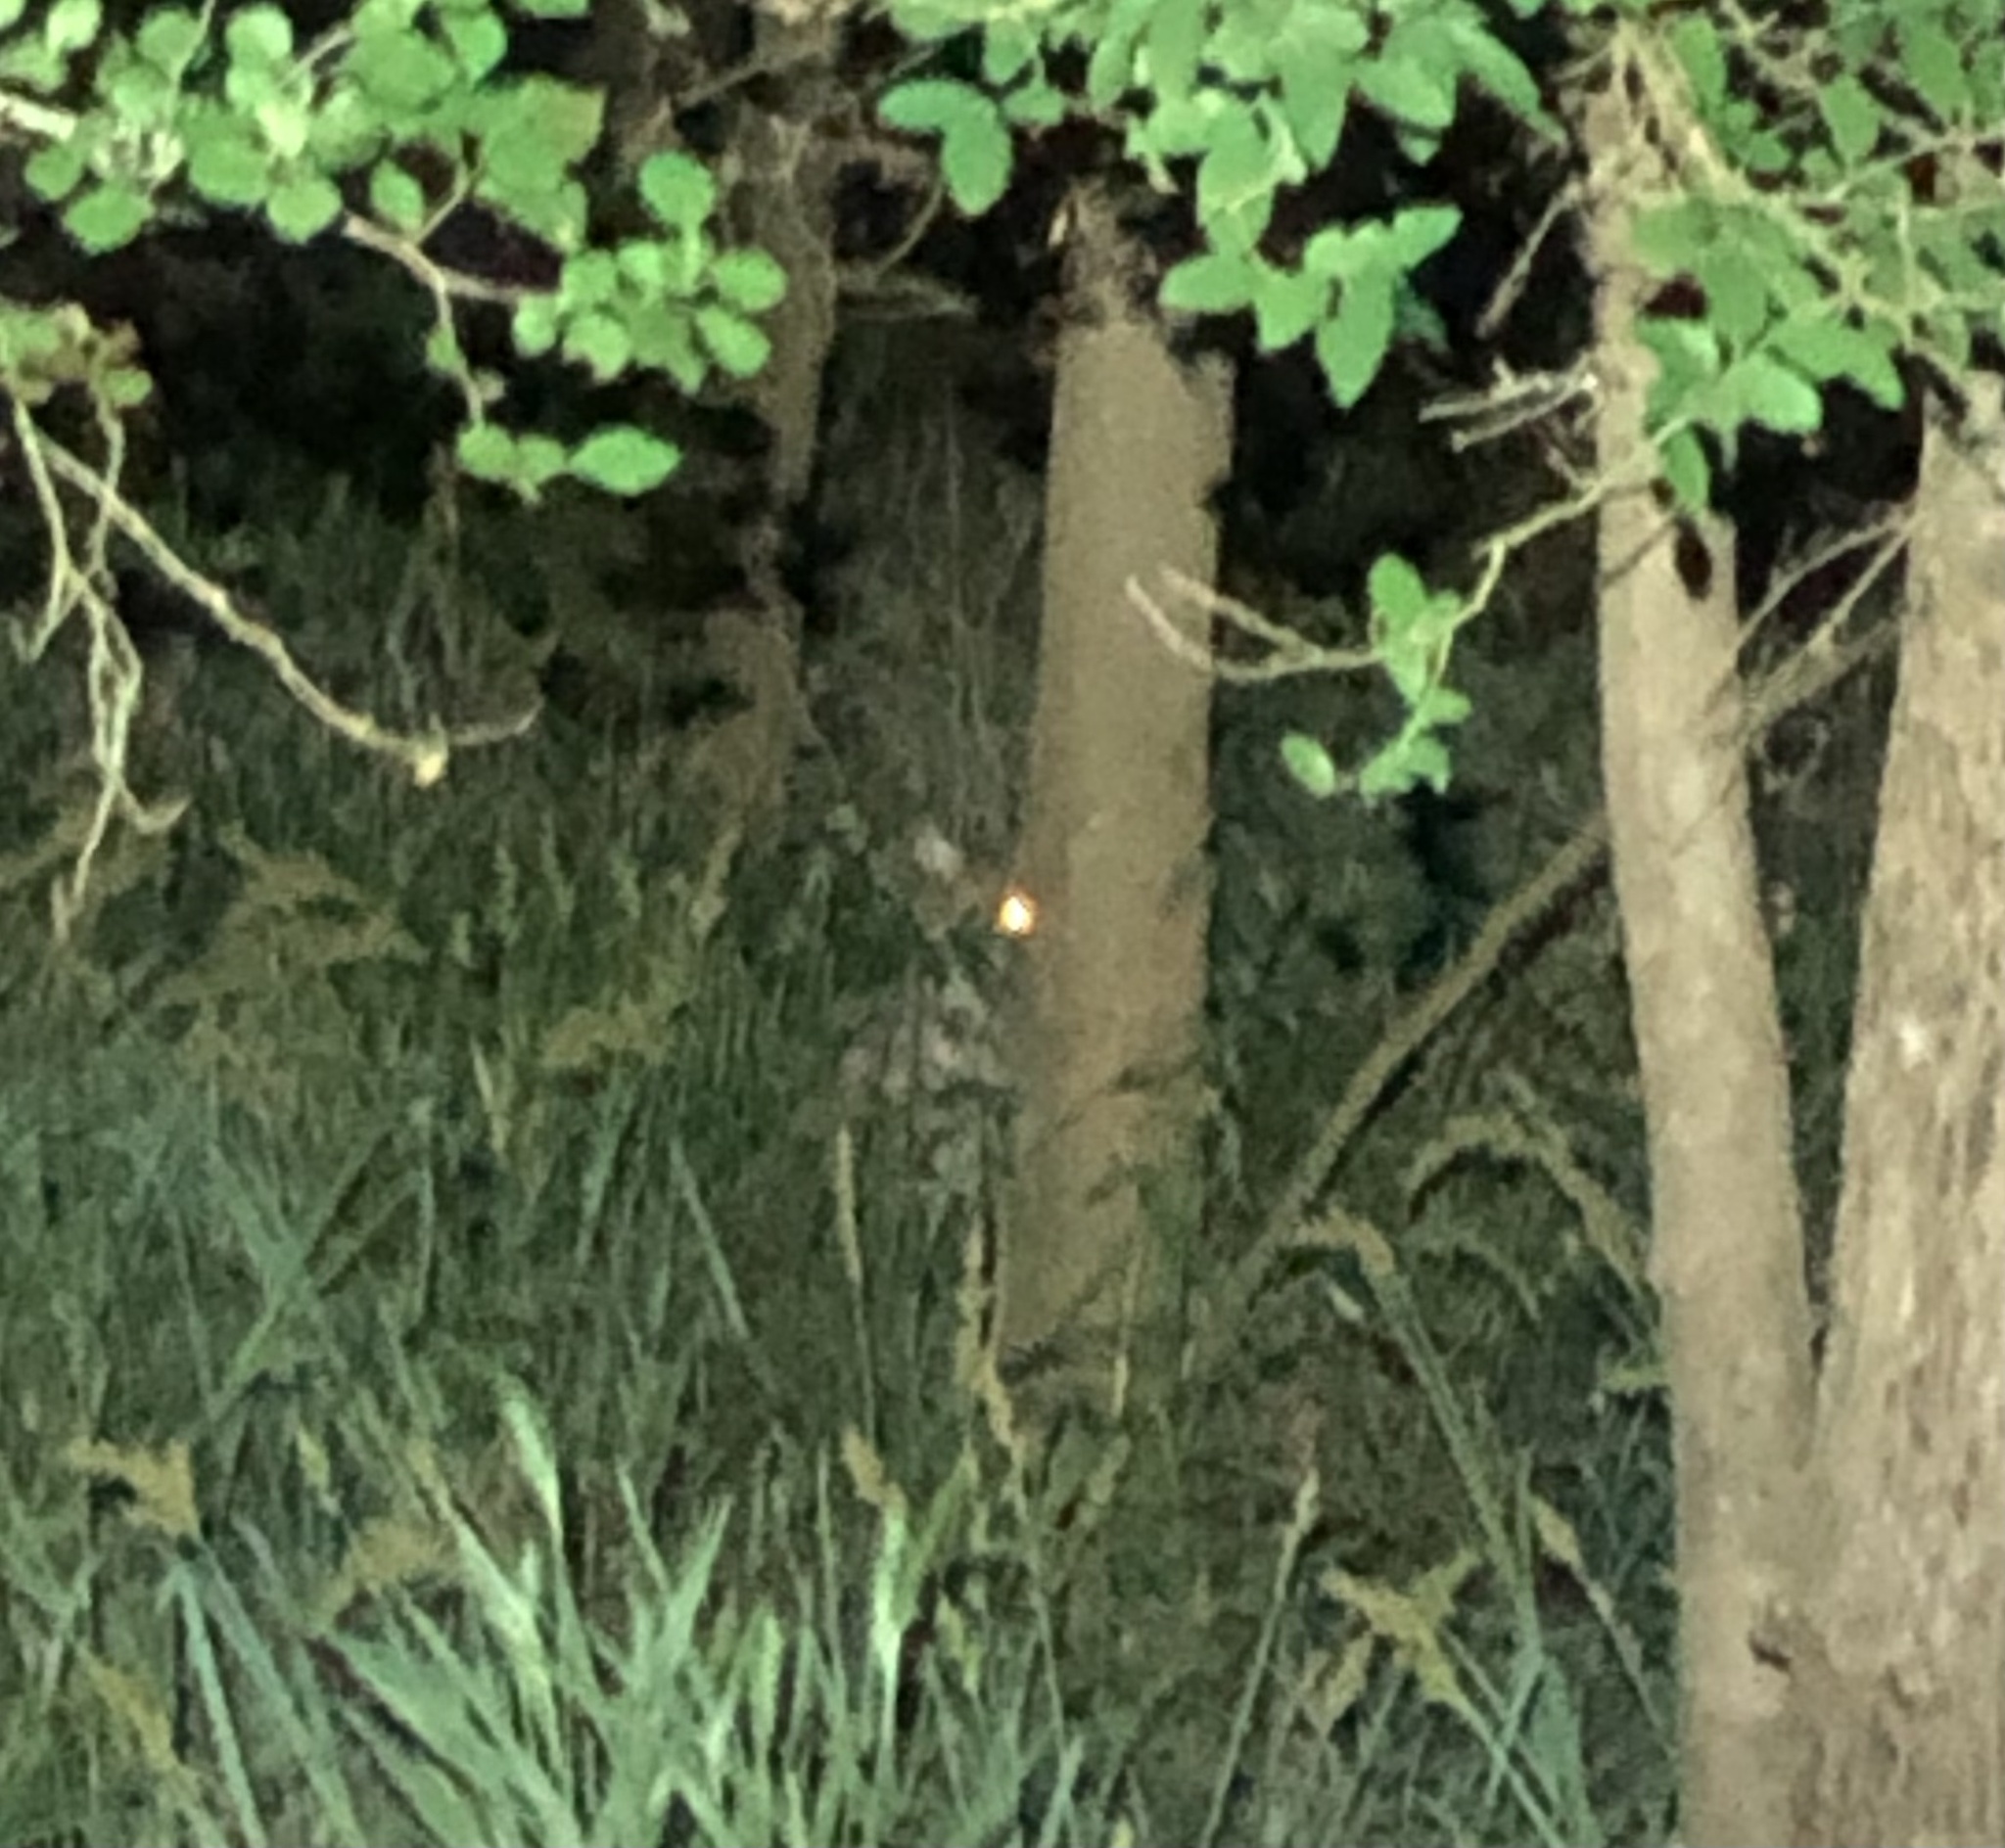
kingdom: Animalia
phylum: Chordata
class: Mammalia
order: Carnivora
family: Felidae
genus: Lynx
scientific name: Lynx rufus
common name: Bobcat
